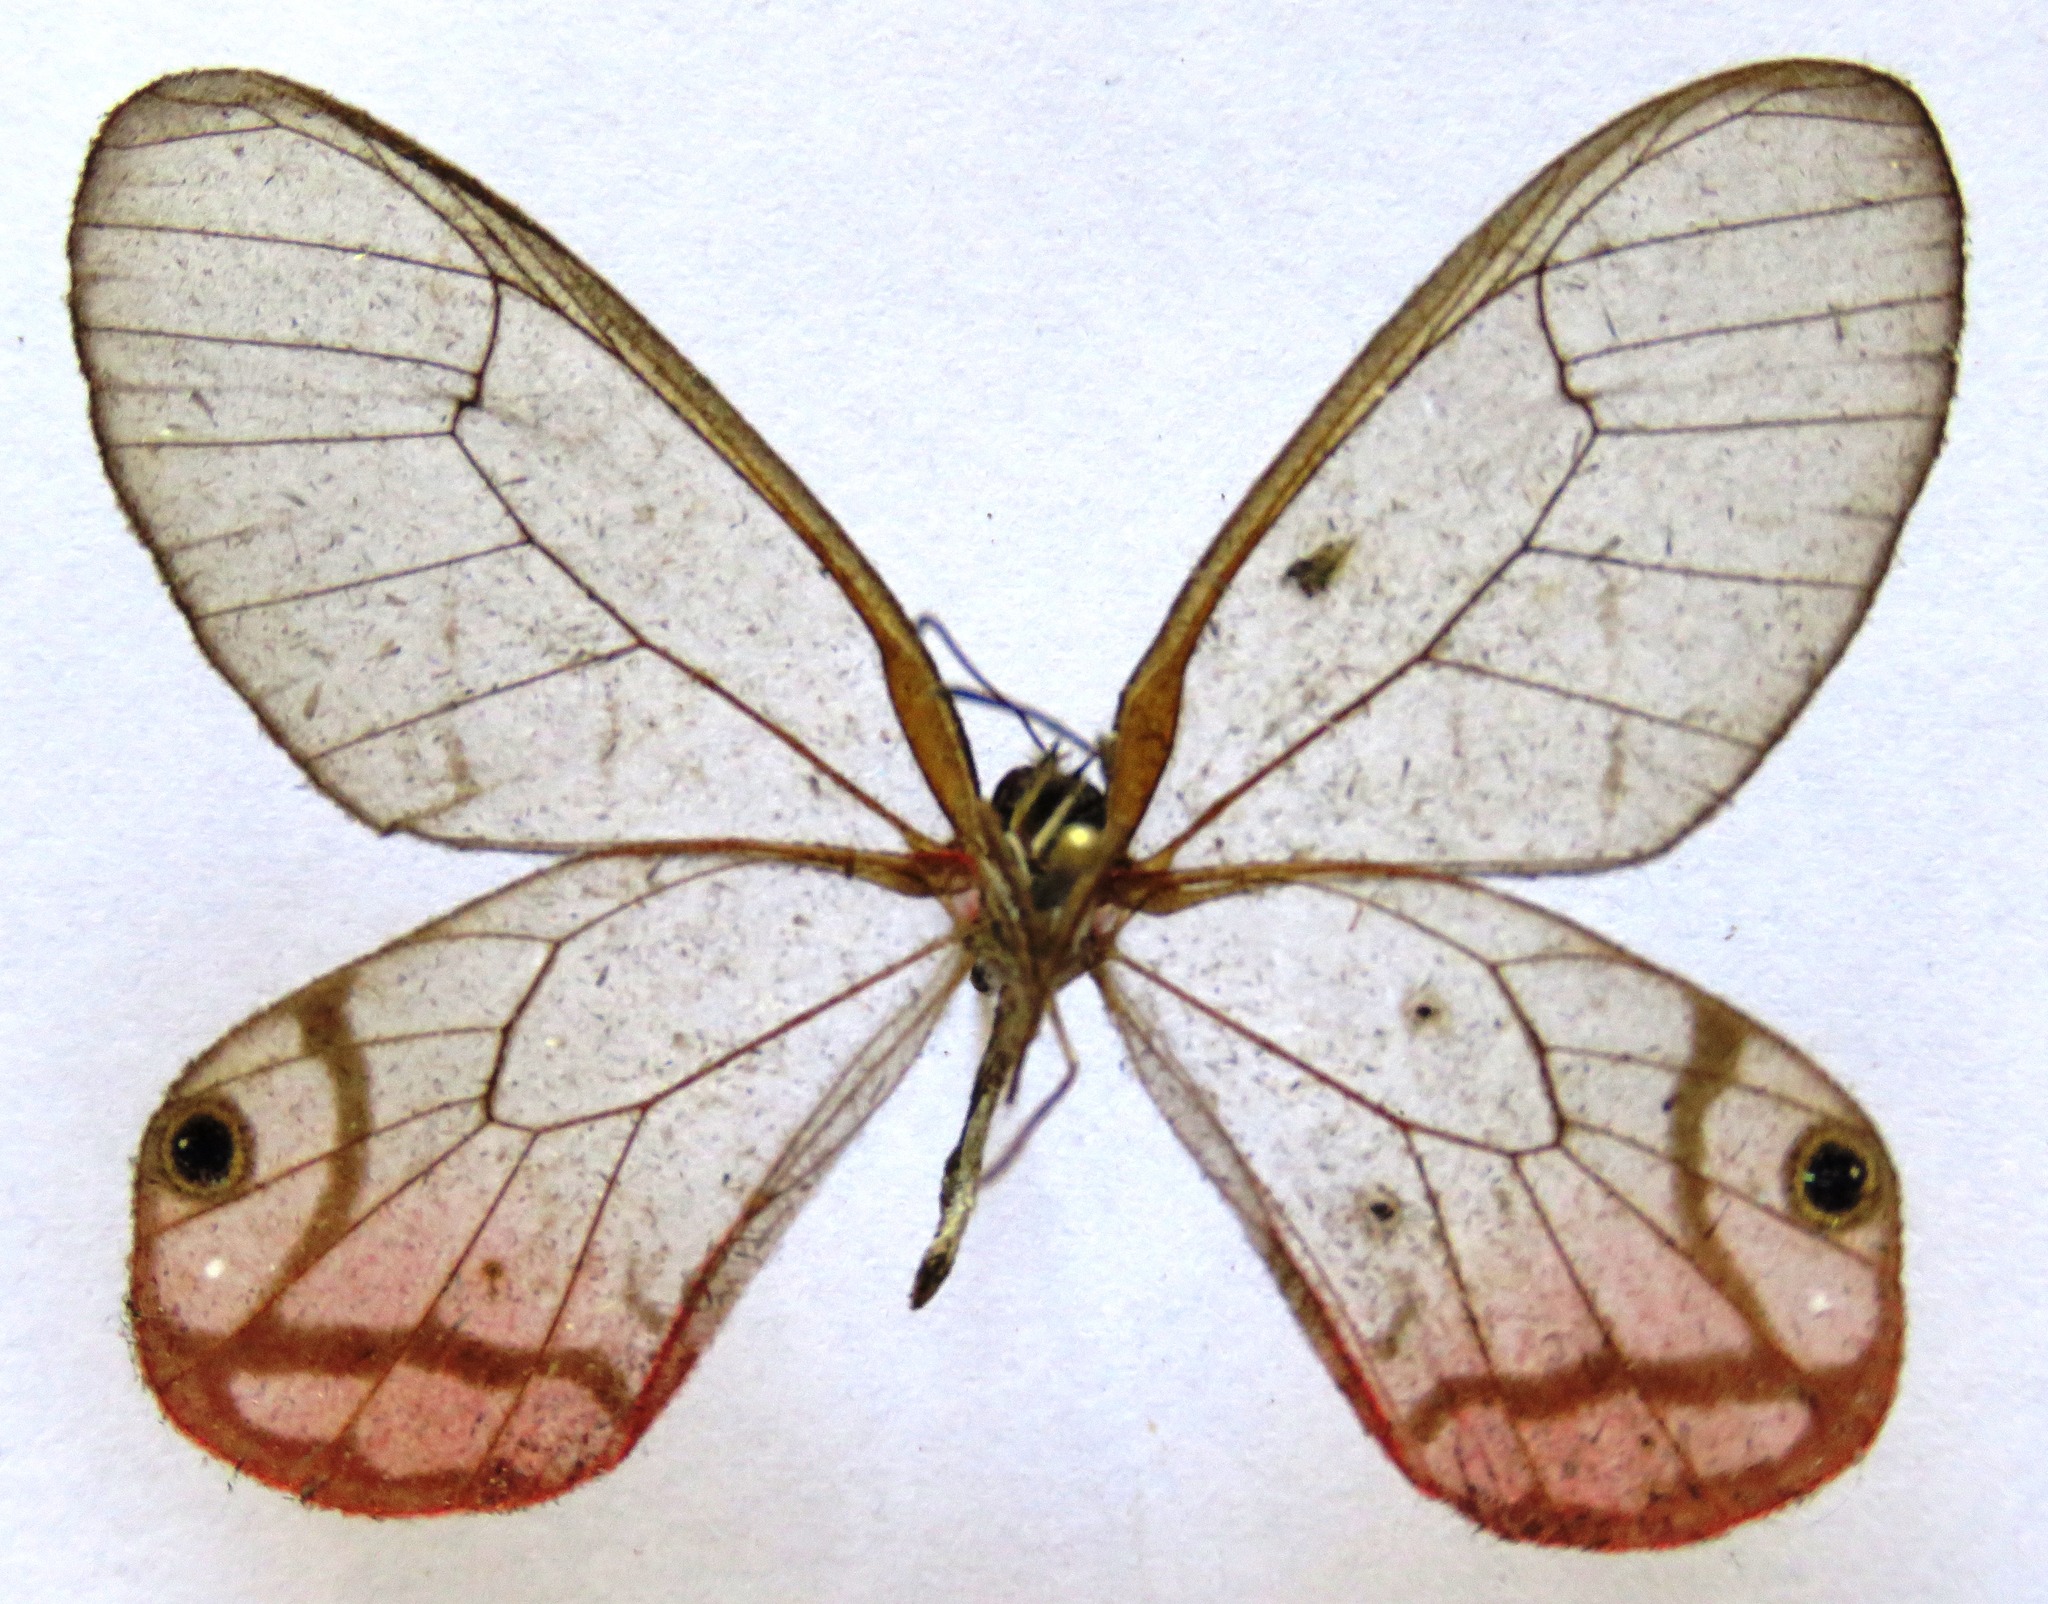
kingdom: Animalia
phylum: Arthropoda
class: Insecta
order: Lepidoptera
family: Nymphalidae
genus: Cithaerias
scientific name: Cithaerias pireta
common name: Rusted clearwing-satyr
